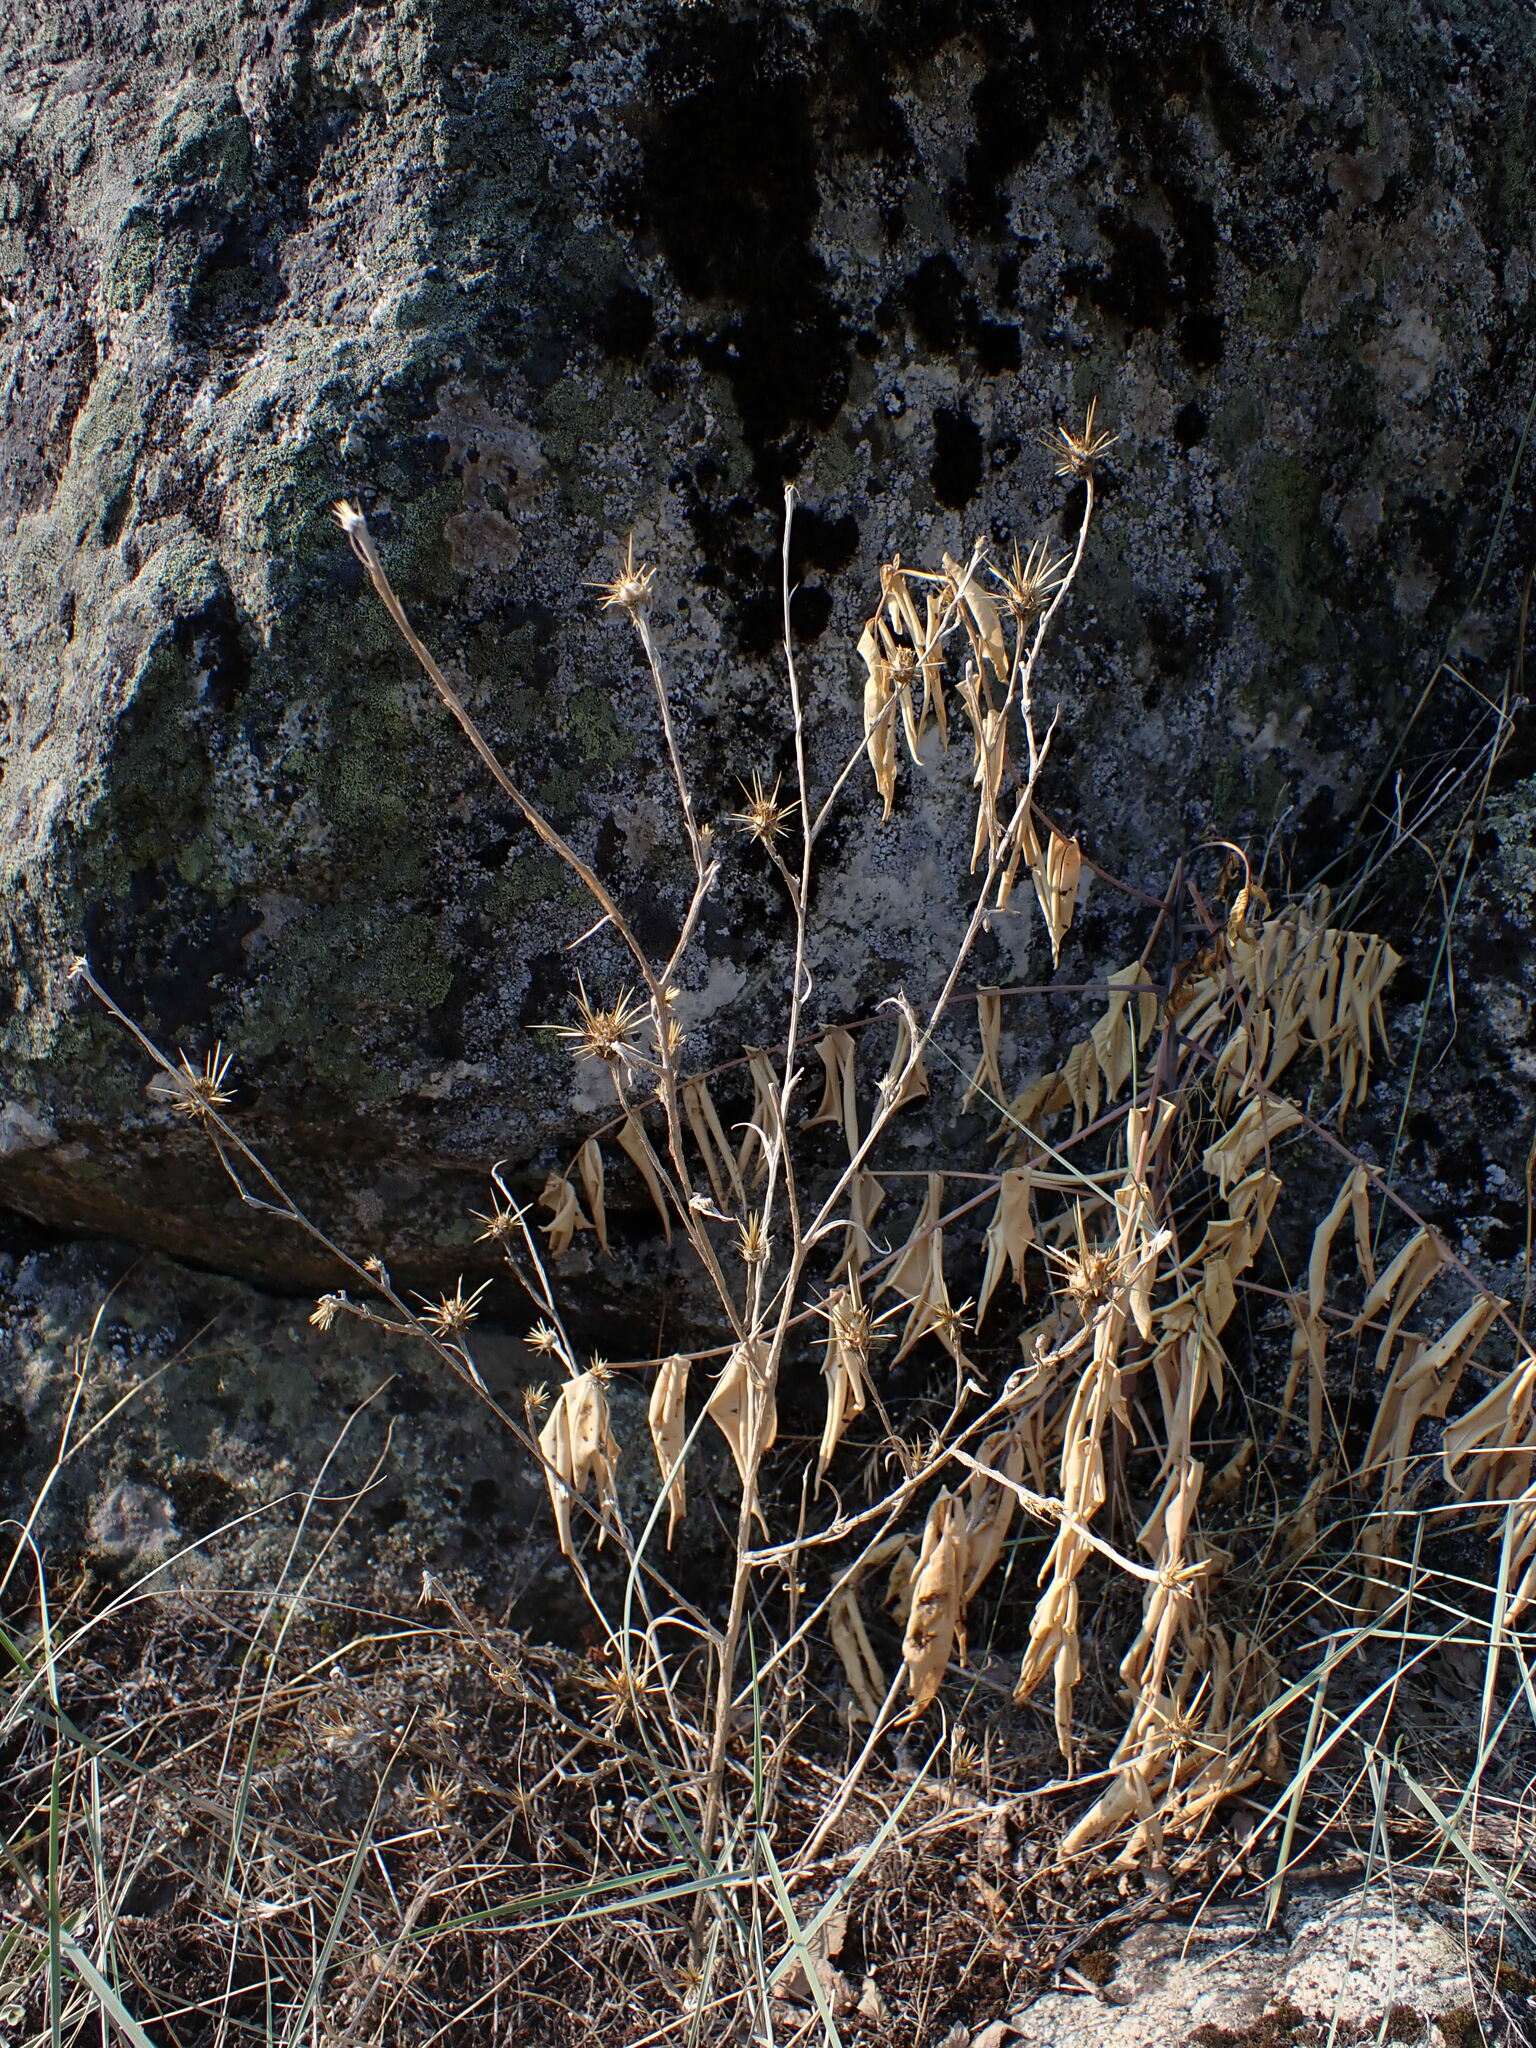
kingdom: Plantae
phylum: Tracheophyta
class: Magnoliopsida
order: Asterales
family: Asteraceae
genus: Centaurea
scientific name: Centaurea solstitialis
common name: Yellow star-thistle
